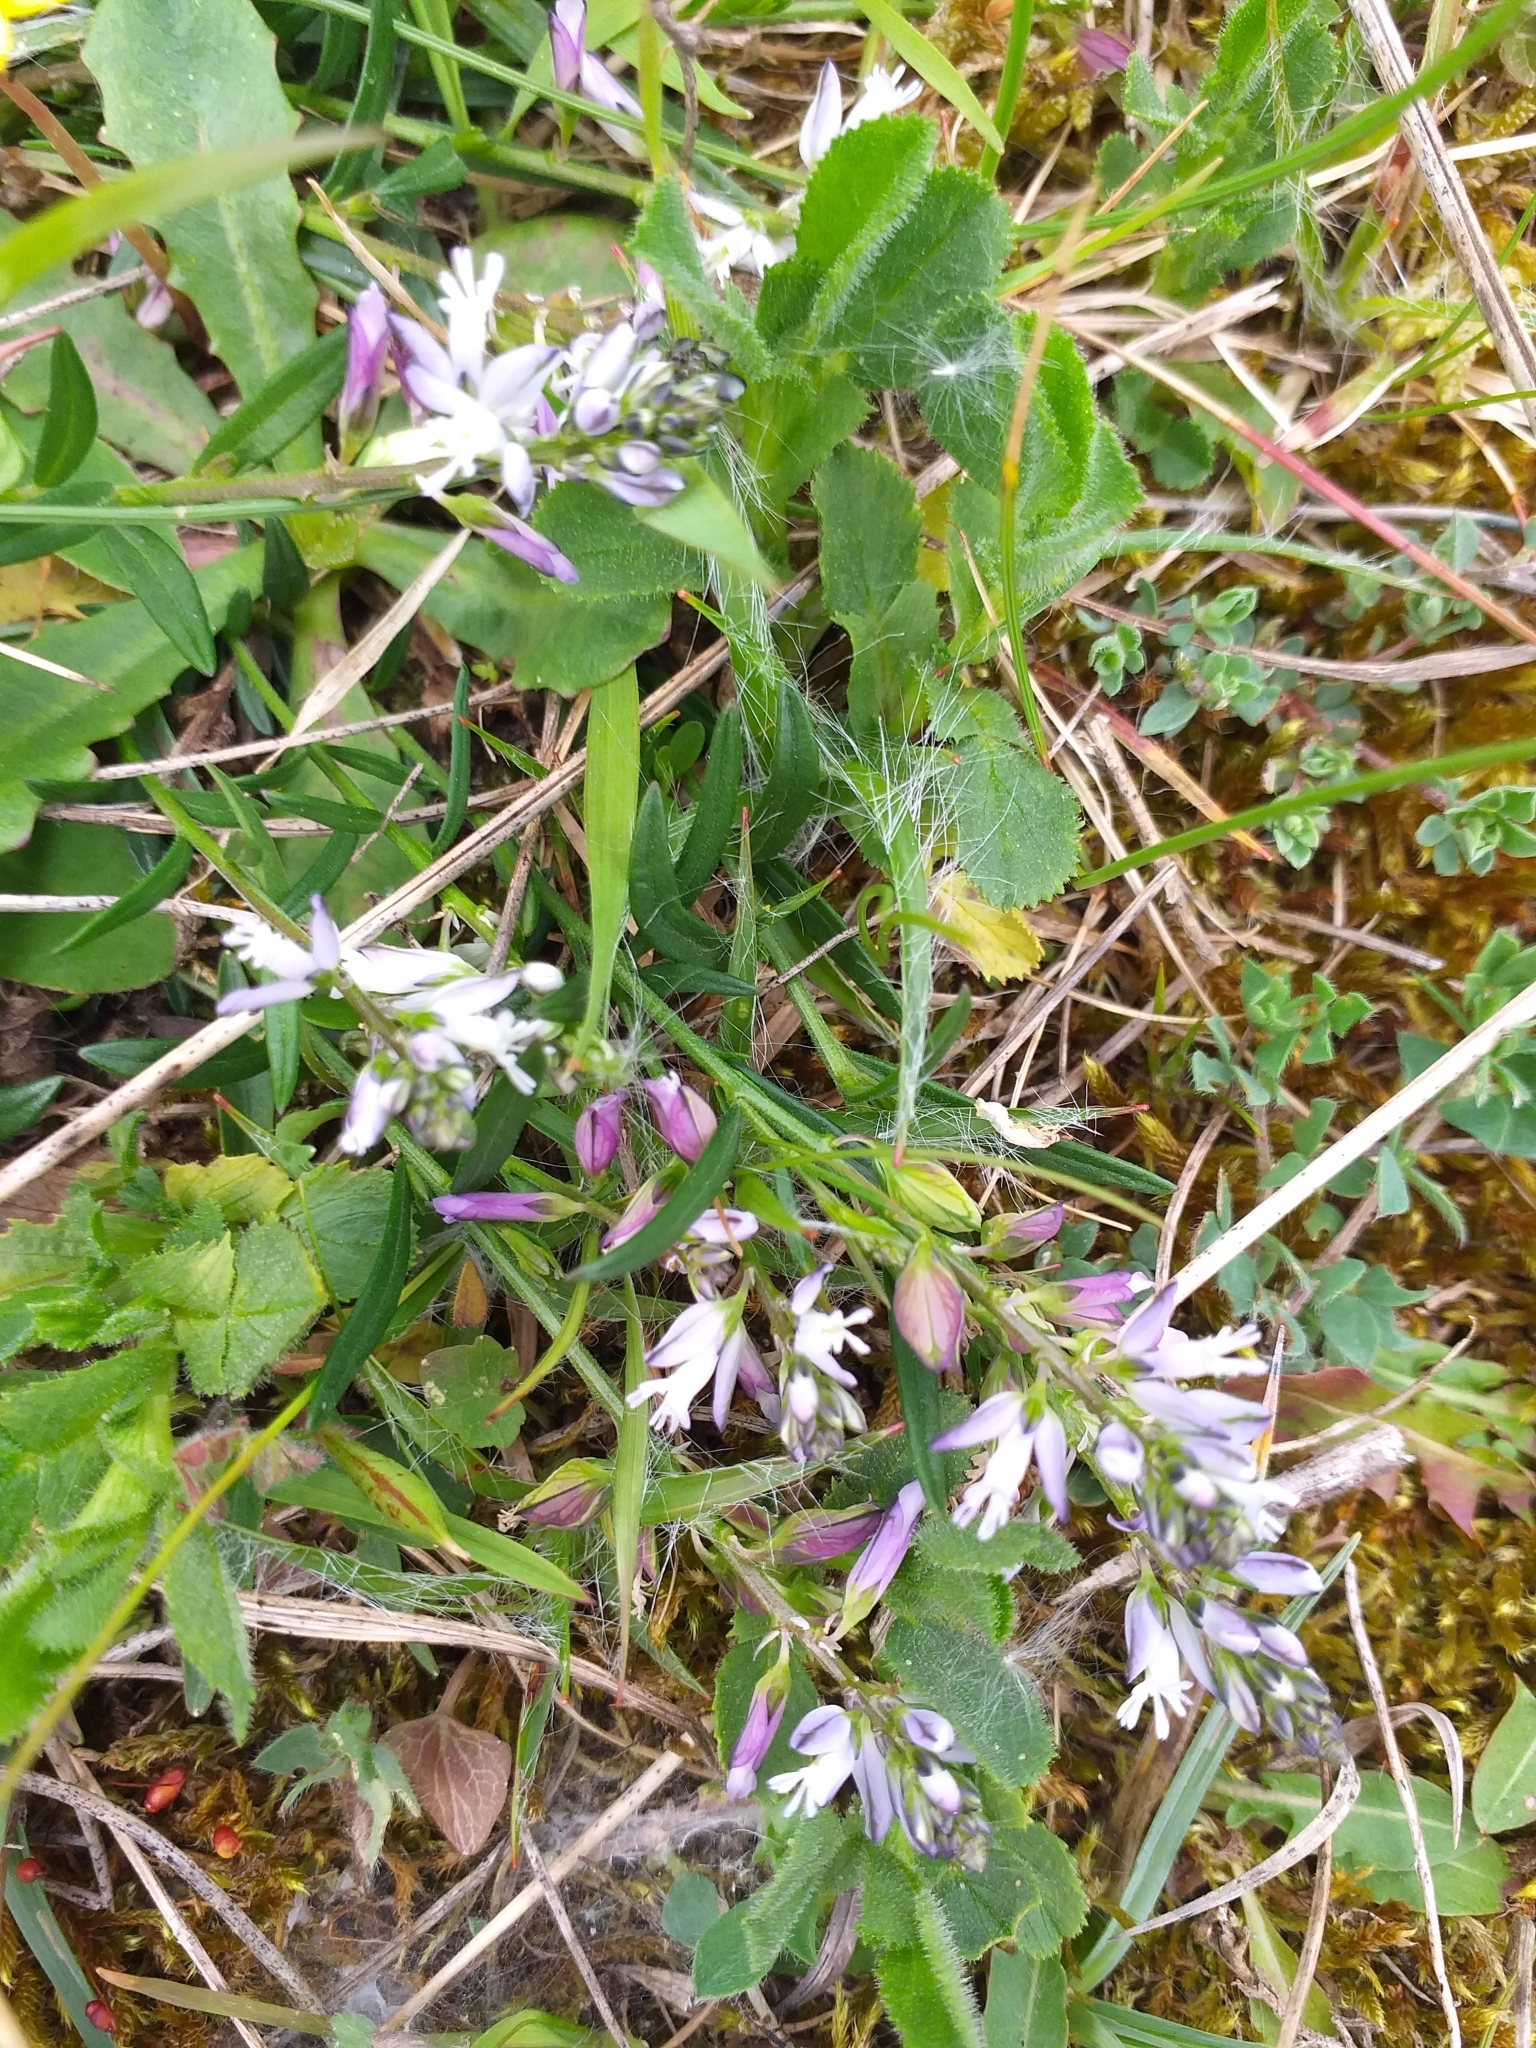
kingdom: Plantae
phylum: Tracheophyta
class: Magnoliopsida
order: Fabales
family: Polygalaceae
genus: Polygala
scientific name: Polygala vulgaris
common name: Common milkwort
